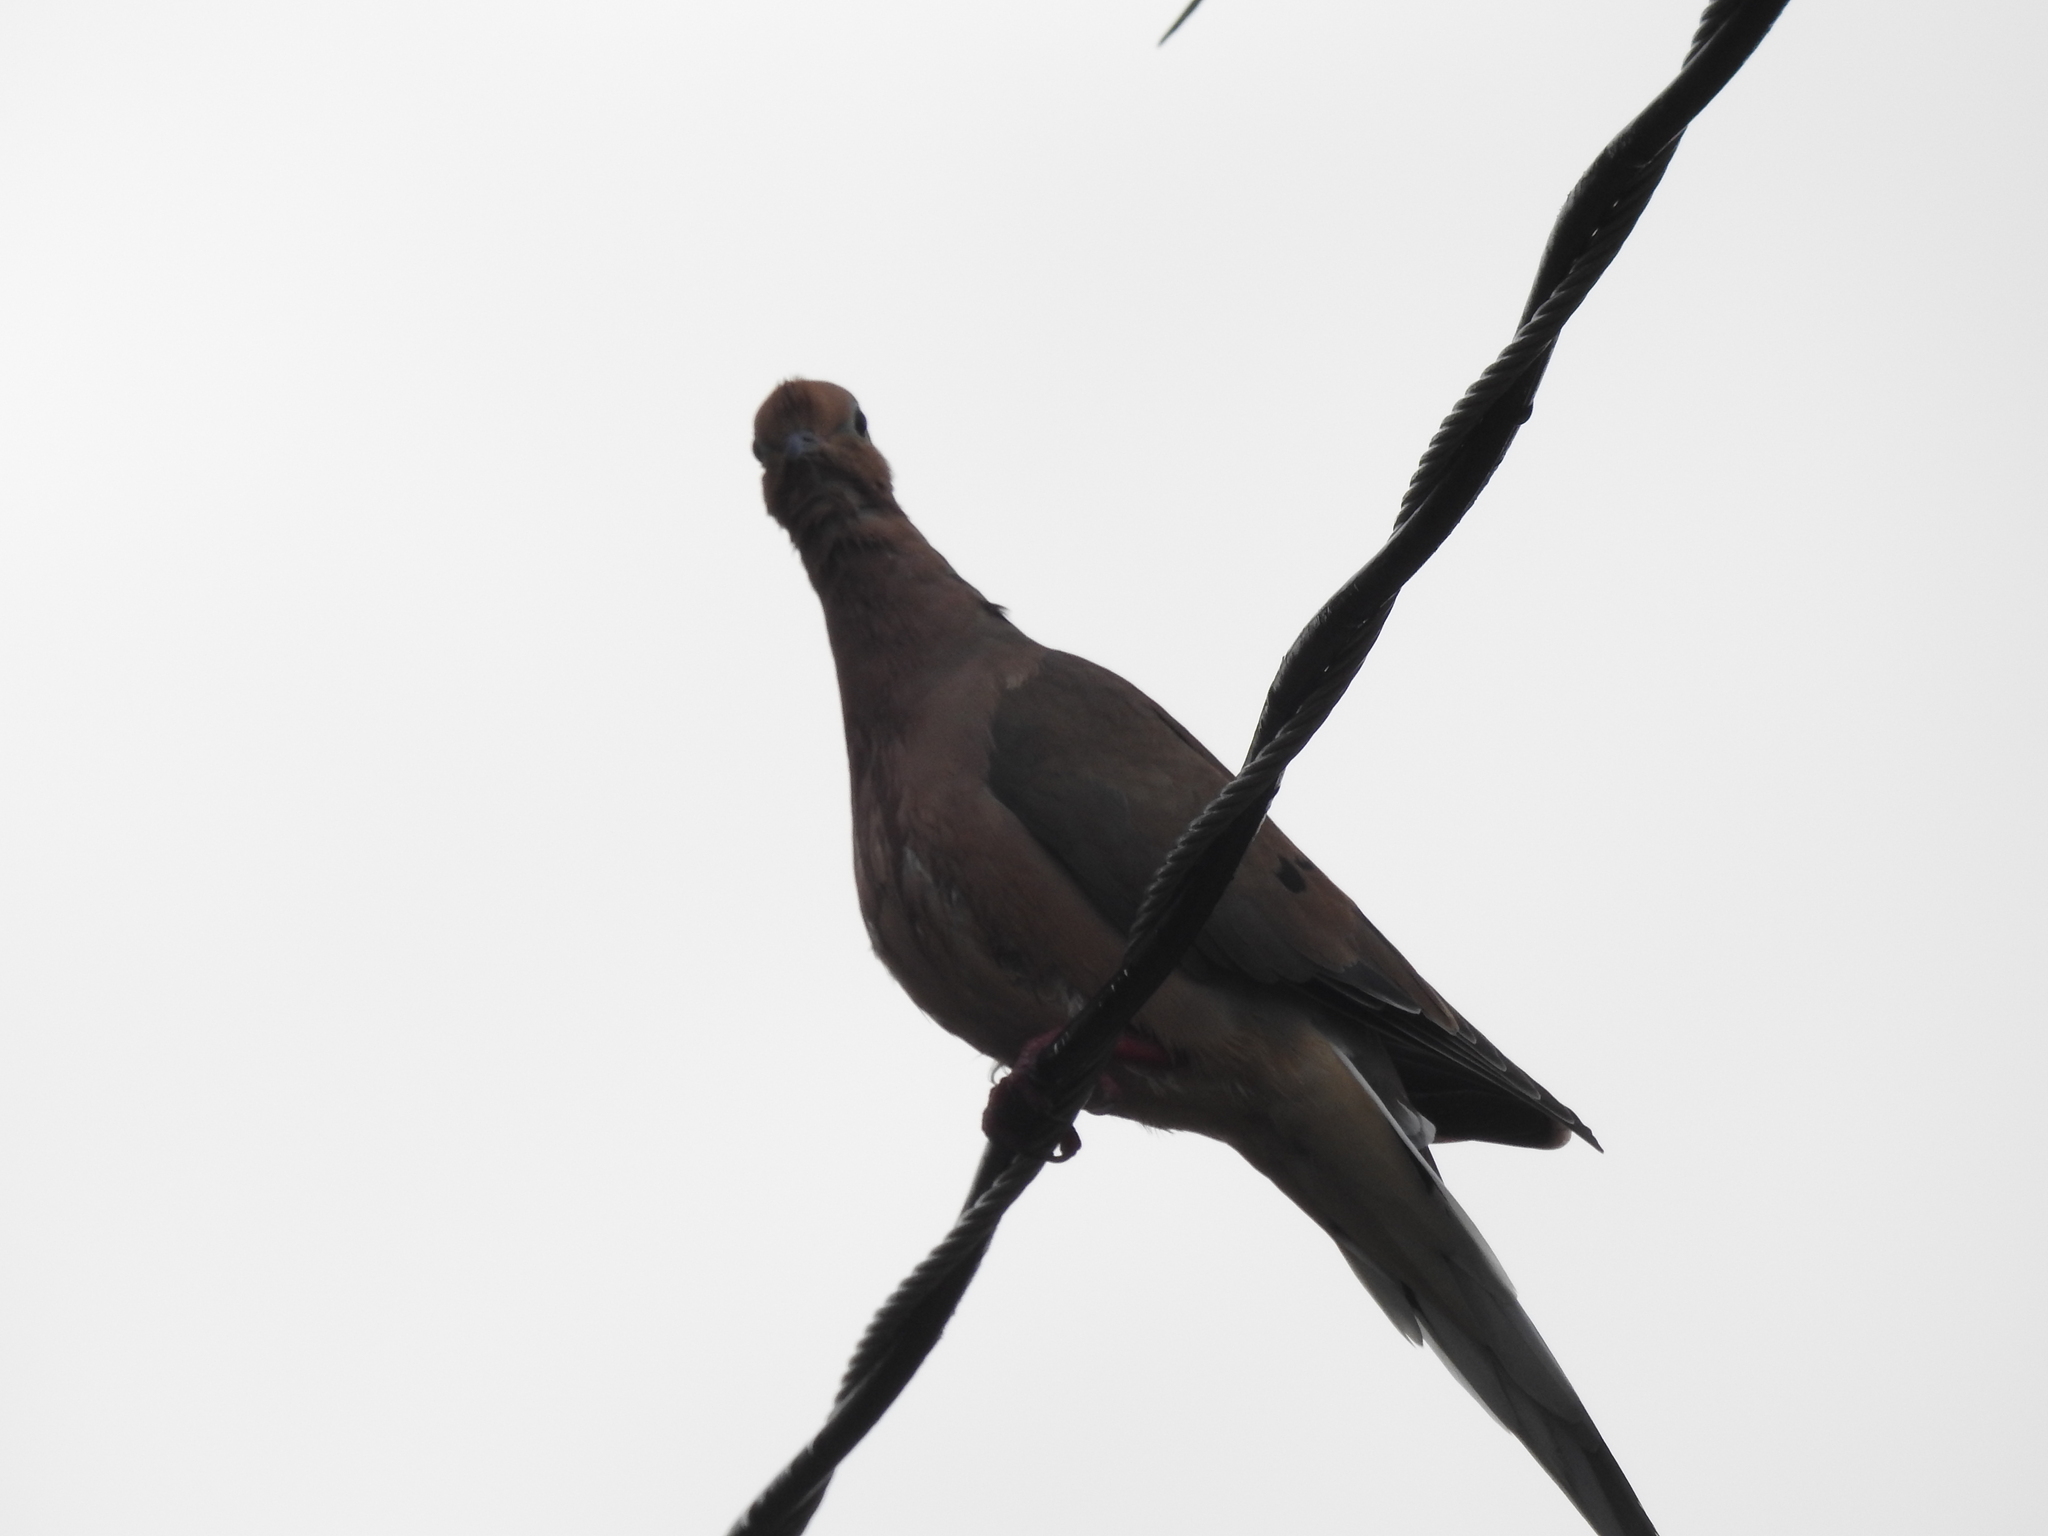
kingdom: Animalia
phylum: Chordata
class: Aves
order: Columbiformes
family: Columbidae
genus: Zenaida
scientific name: Zenaida macroura
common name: Mourning dove
